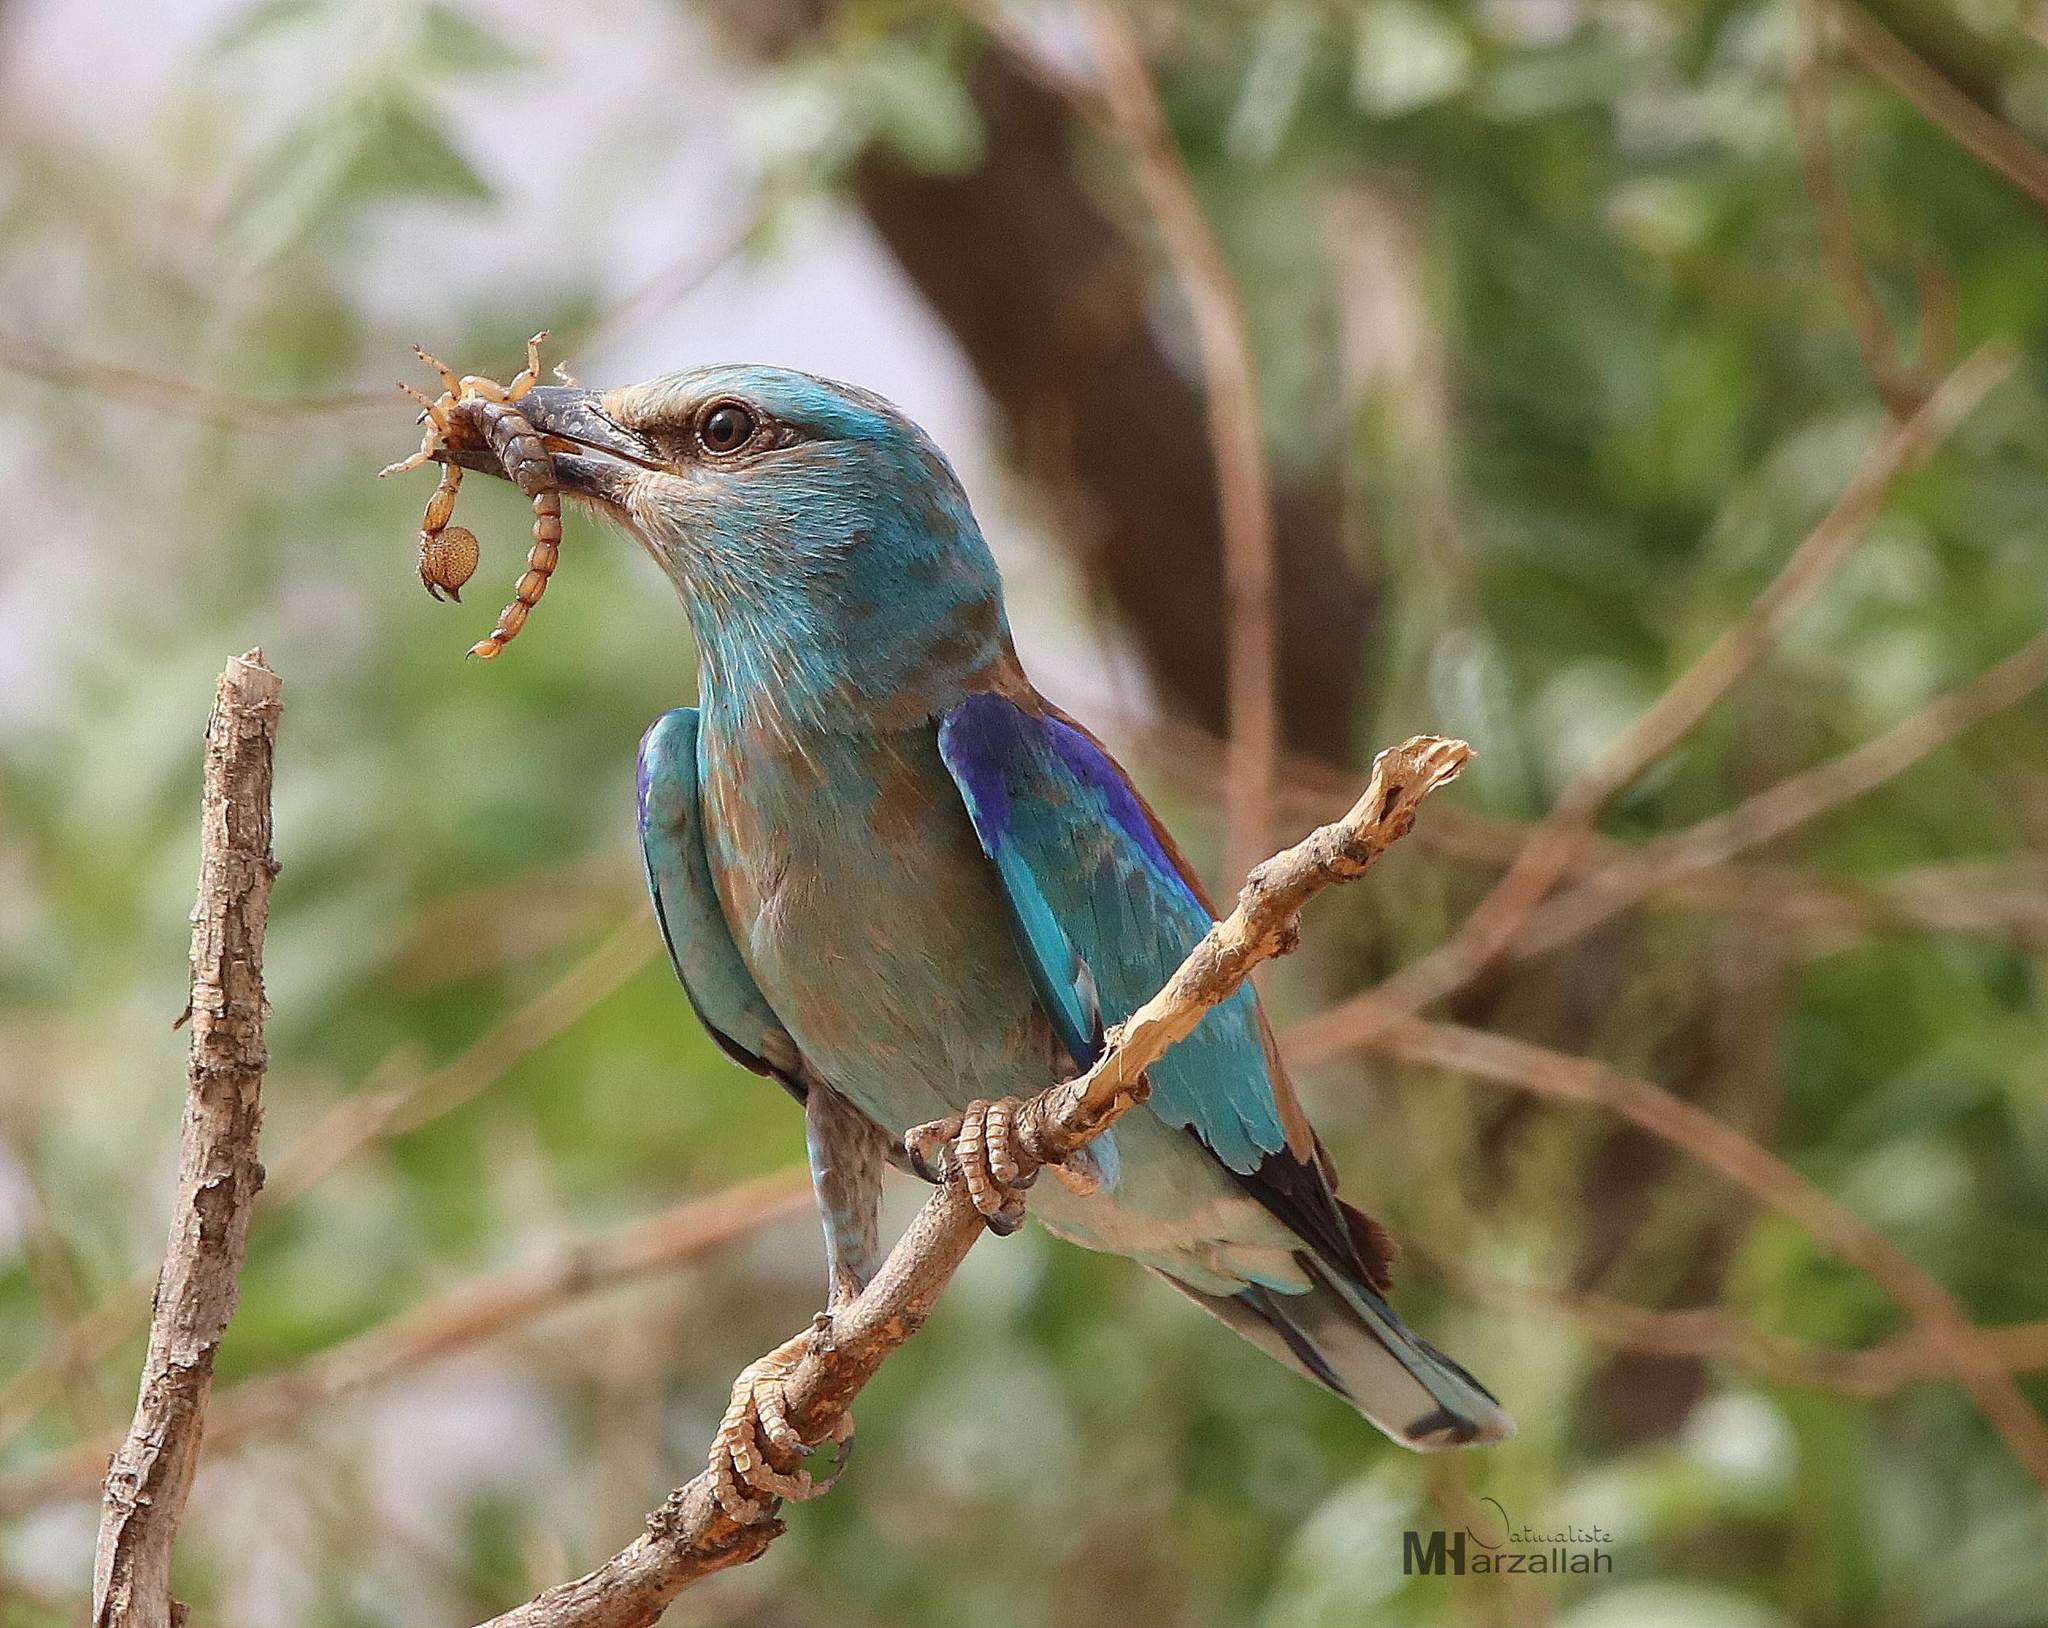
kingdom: Animalia
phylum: Chordata
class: Aves
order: Coraciiformes
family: Coraciidae
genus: Coracias
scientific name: Coracias garrulus
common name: European roller
